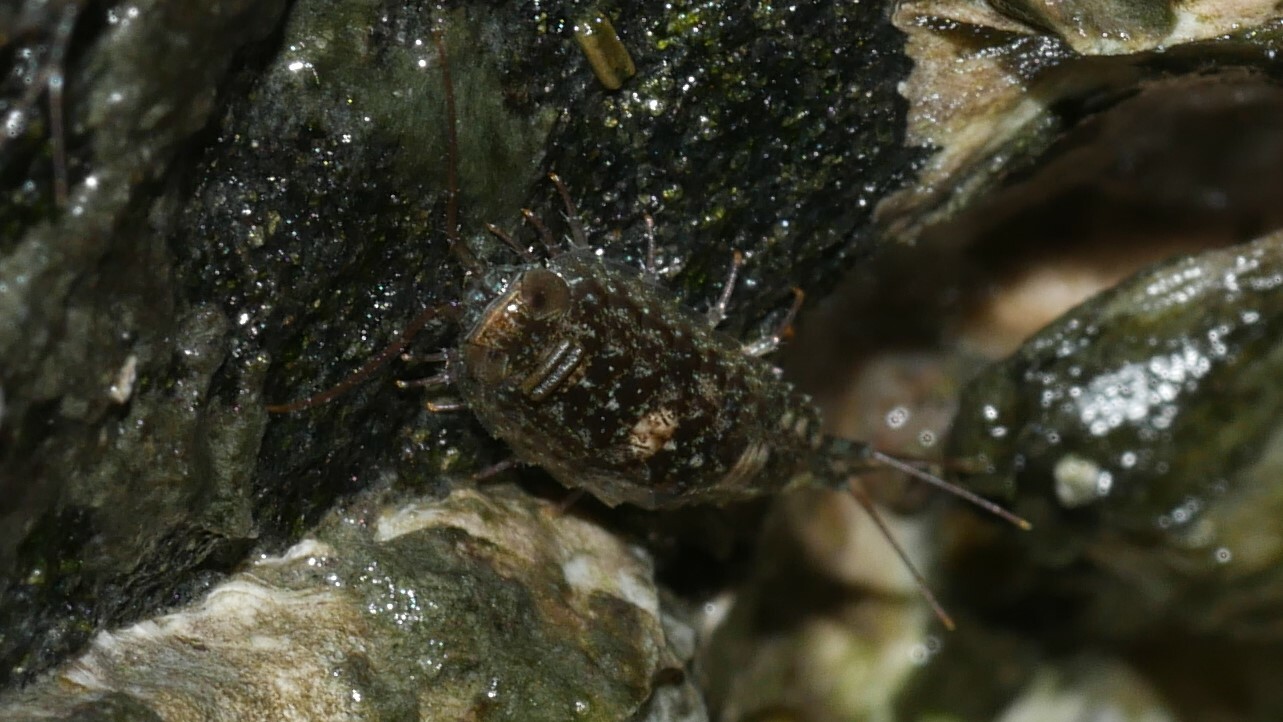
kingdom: Animalia
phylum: Arthropoda
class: Malacostraca
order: Isopoda
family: Ligiidae
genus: Ligia
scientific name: Ligia exotica
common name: Wharf roach
